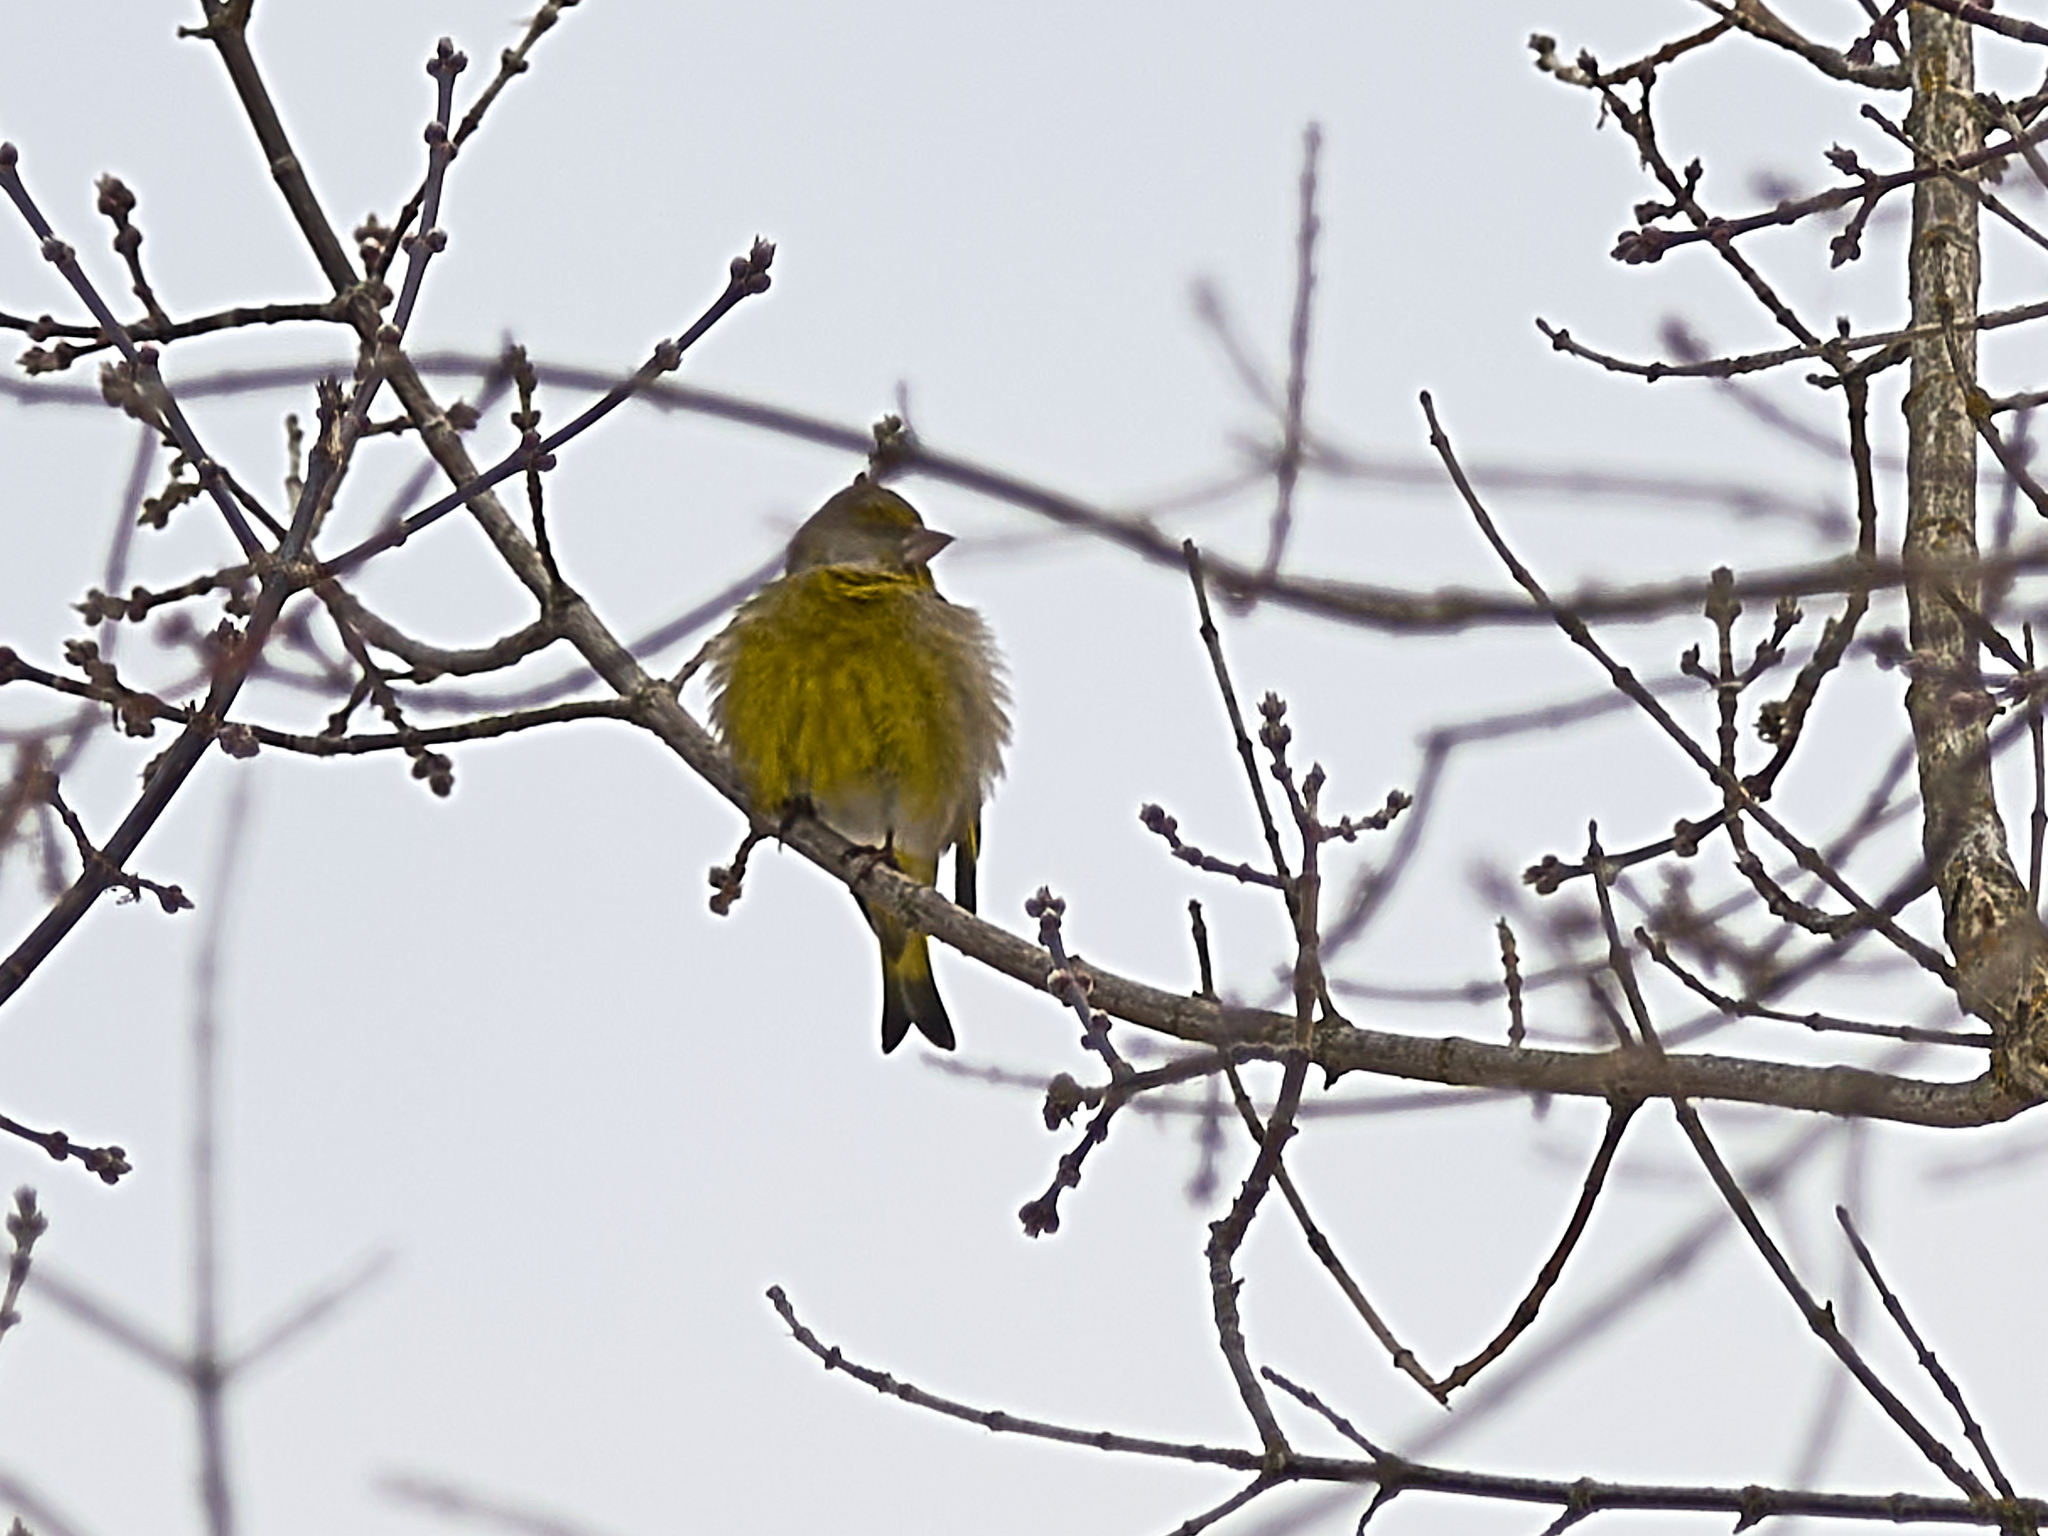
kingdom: Plantae
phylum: Tracheophyta
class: Liliopsida
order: Poales
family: Poaceae
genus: Chloris
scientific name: Chloris chloris
